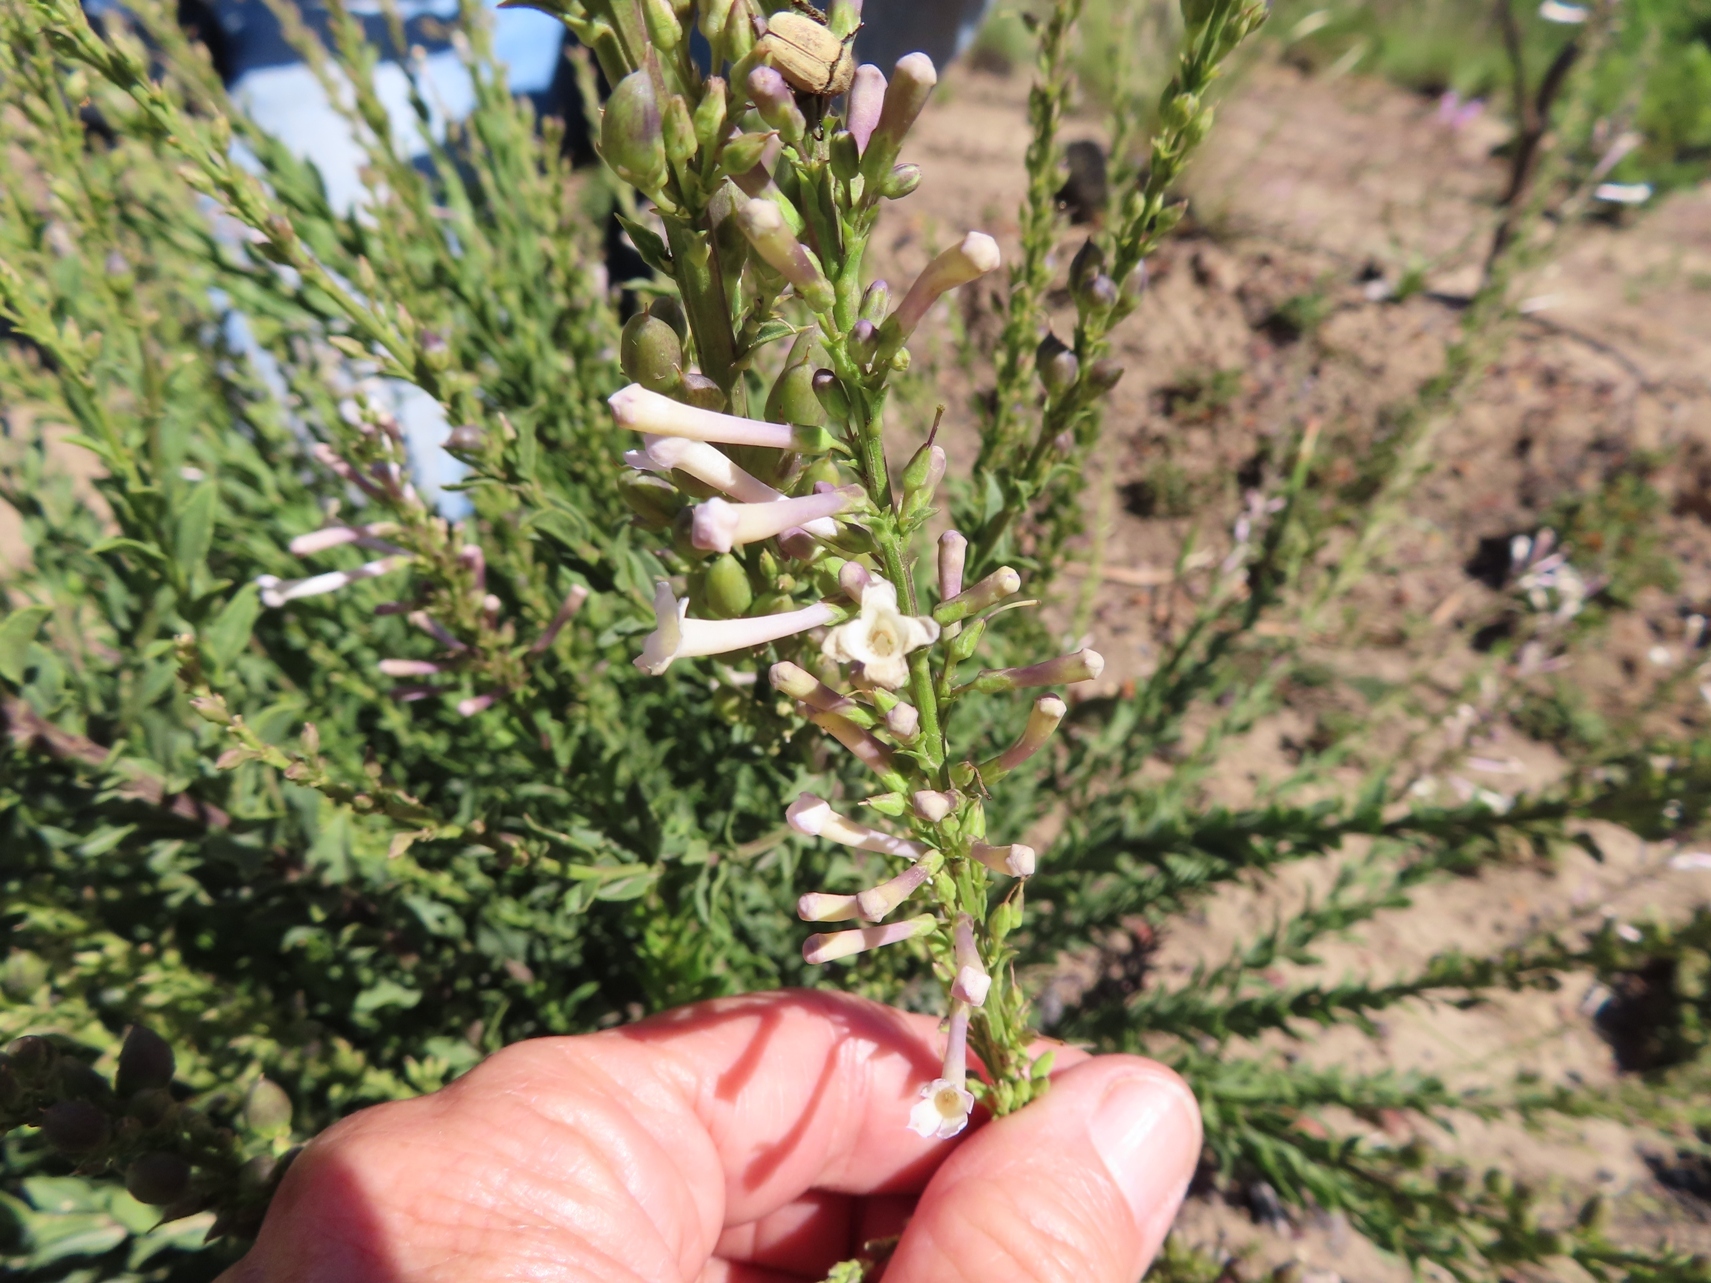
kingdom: Plantae
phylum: Tracheophyta
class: Magnoliopsida
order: Lamiales
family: Scrophulariaceae
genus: Freylinia
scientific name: Freylinia longiflora
